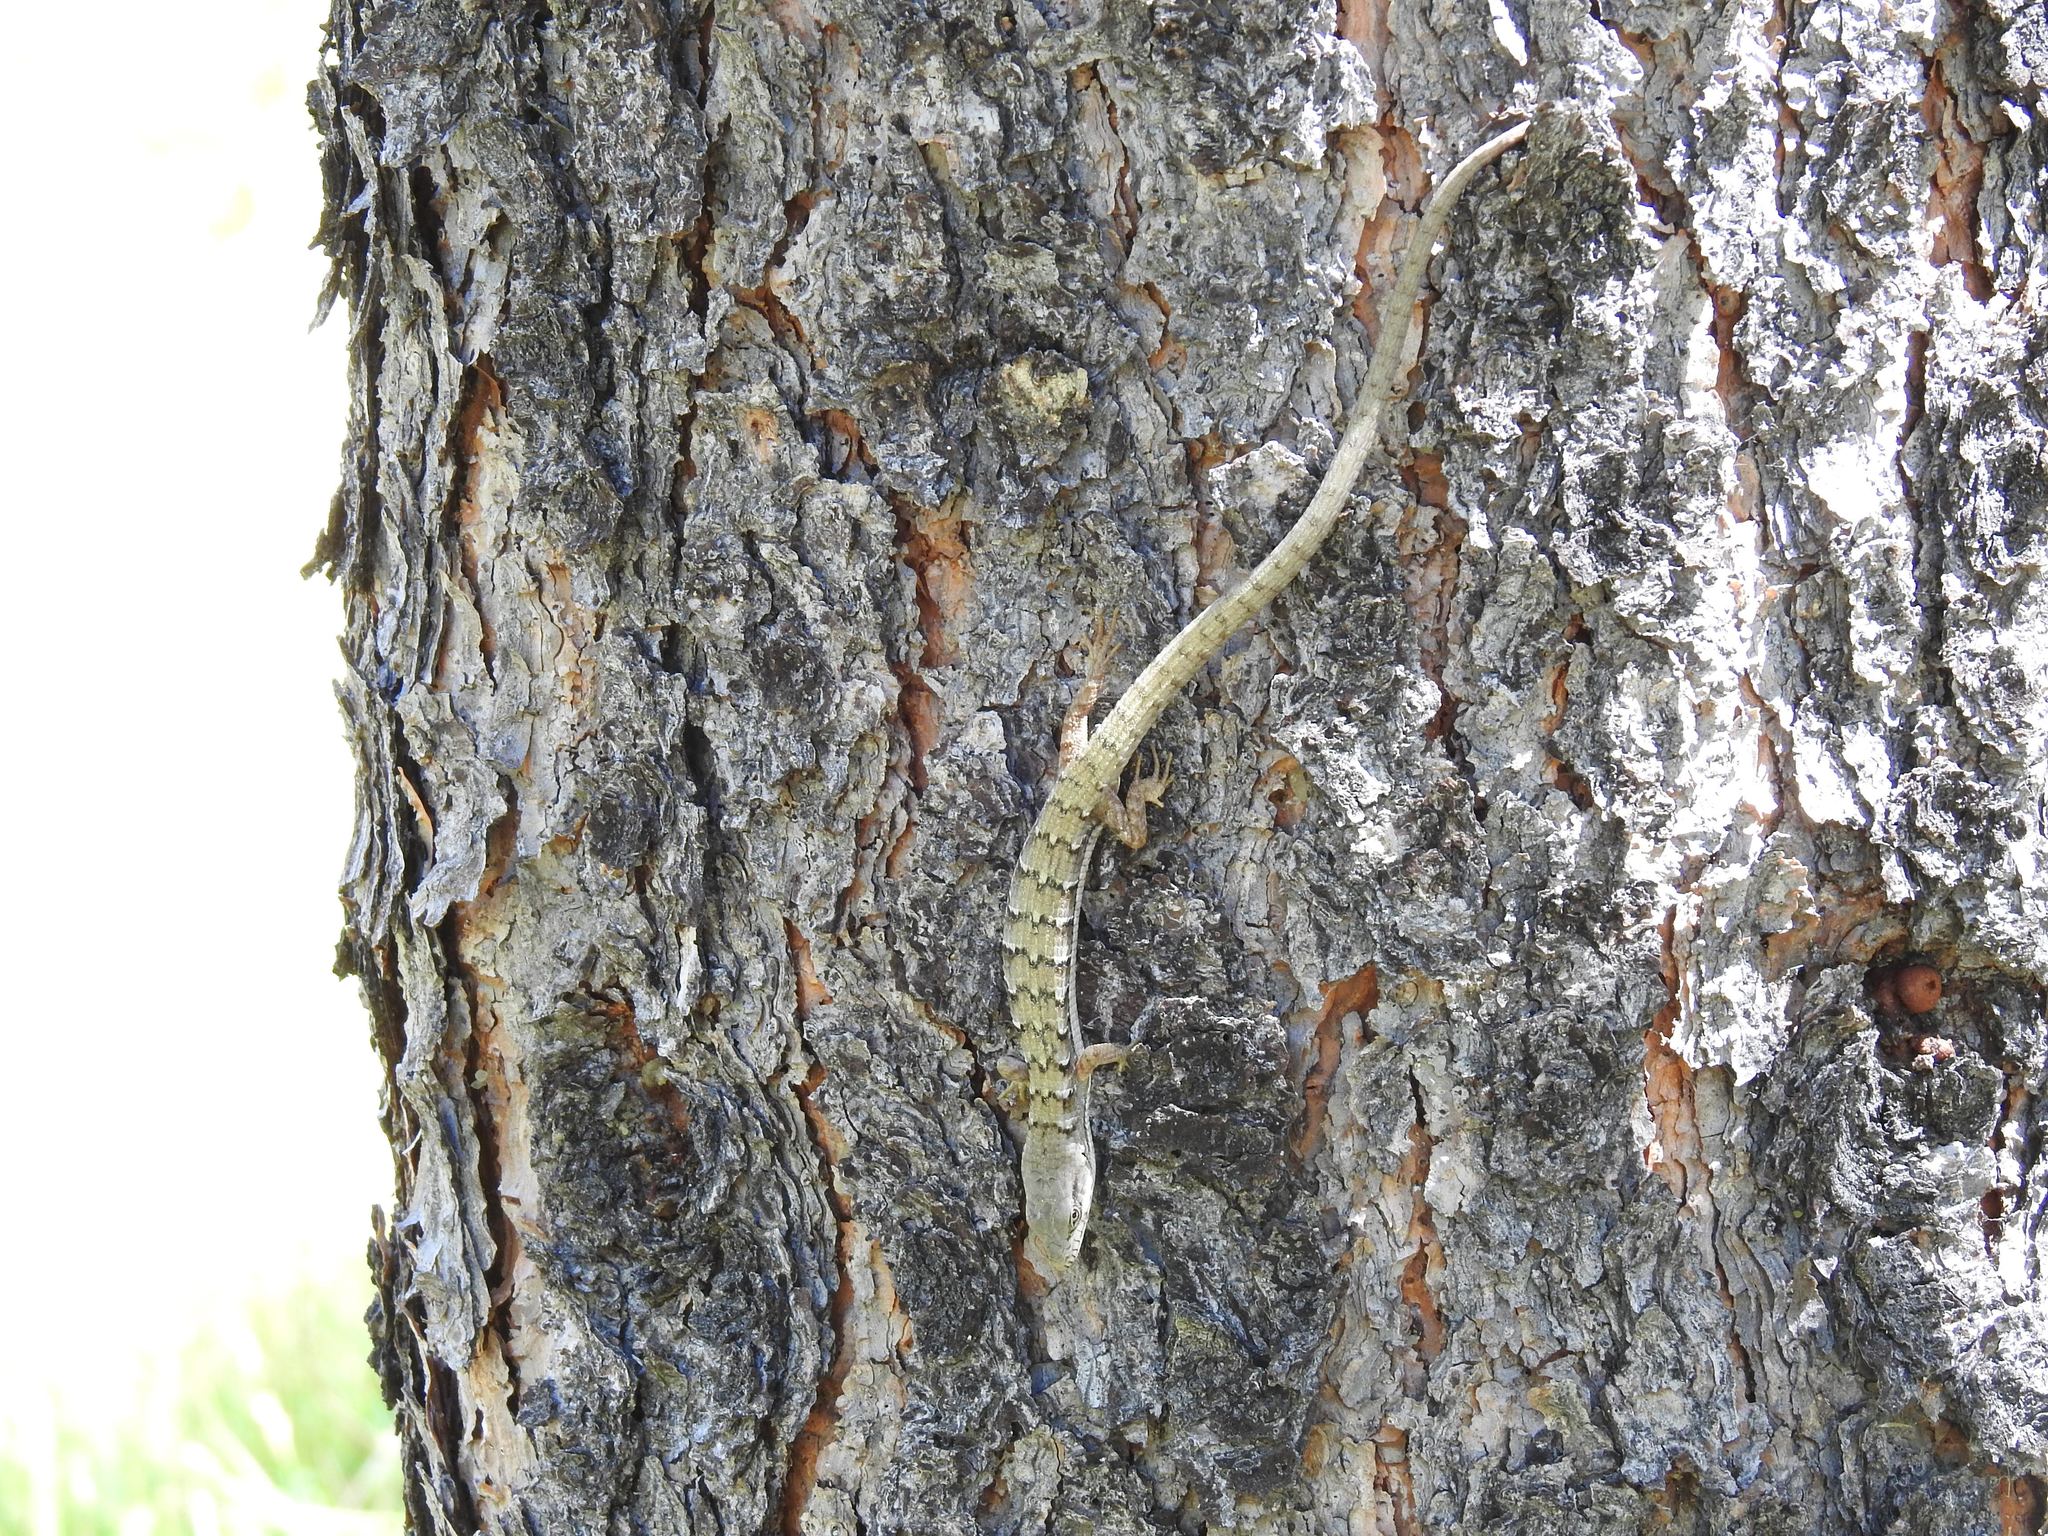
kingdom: Animalia
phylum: Chordata
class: Squamata
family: Anguidae
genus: Elgaria
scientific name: Elgaria multicarinata
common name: Southern alligator lizard
